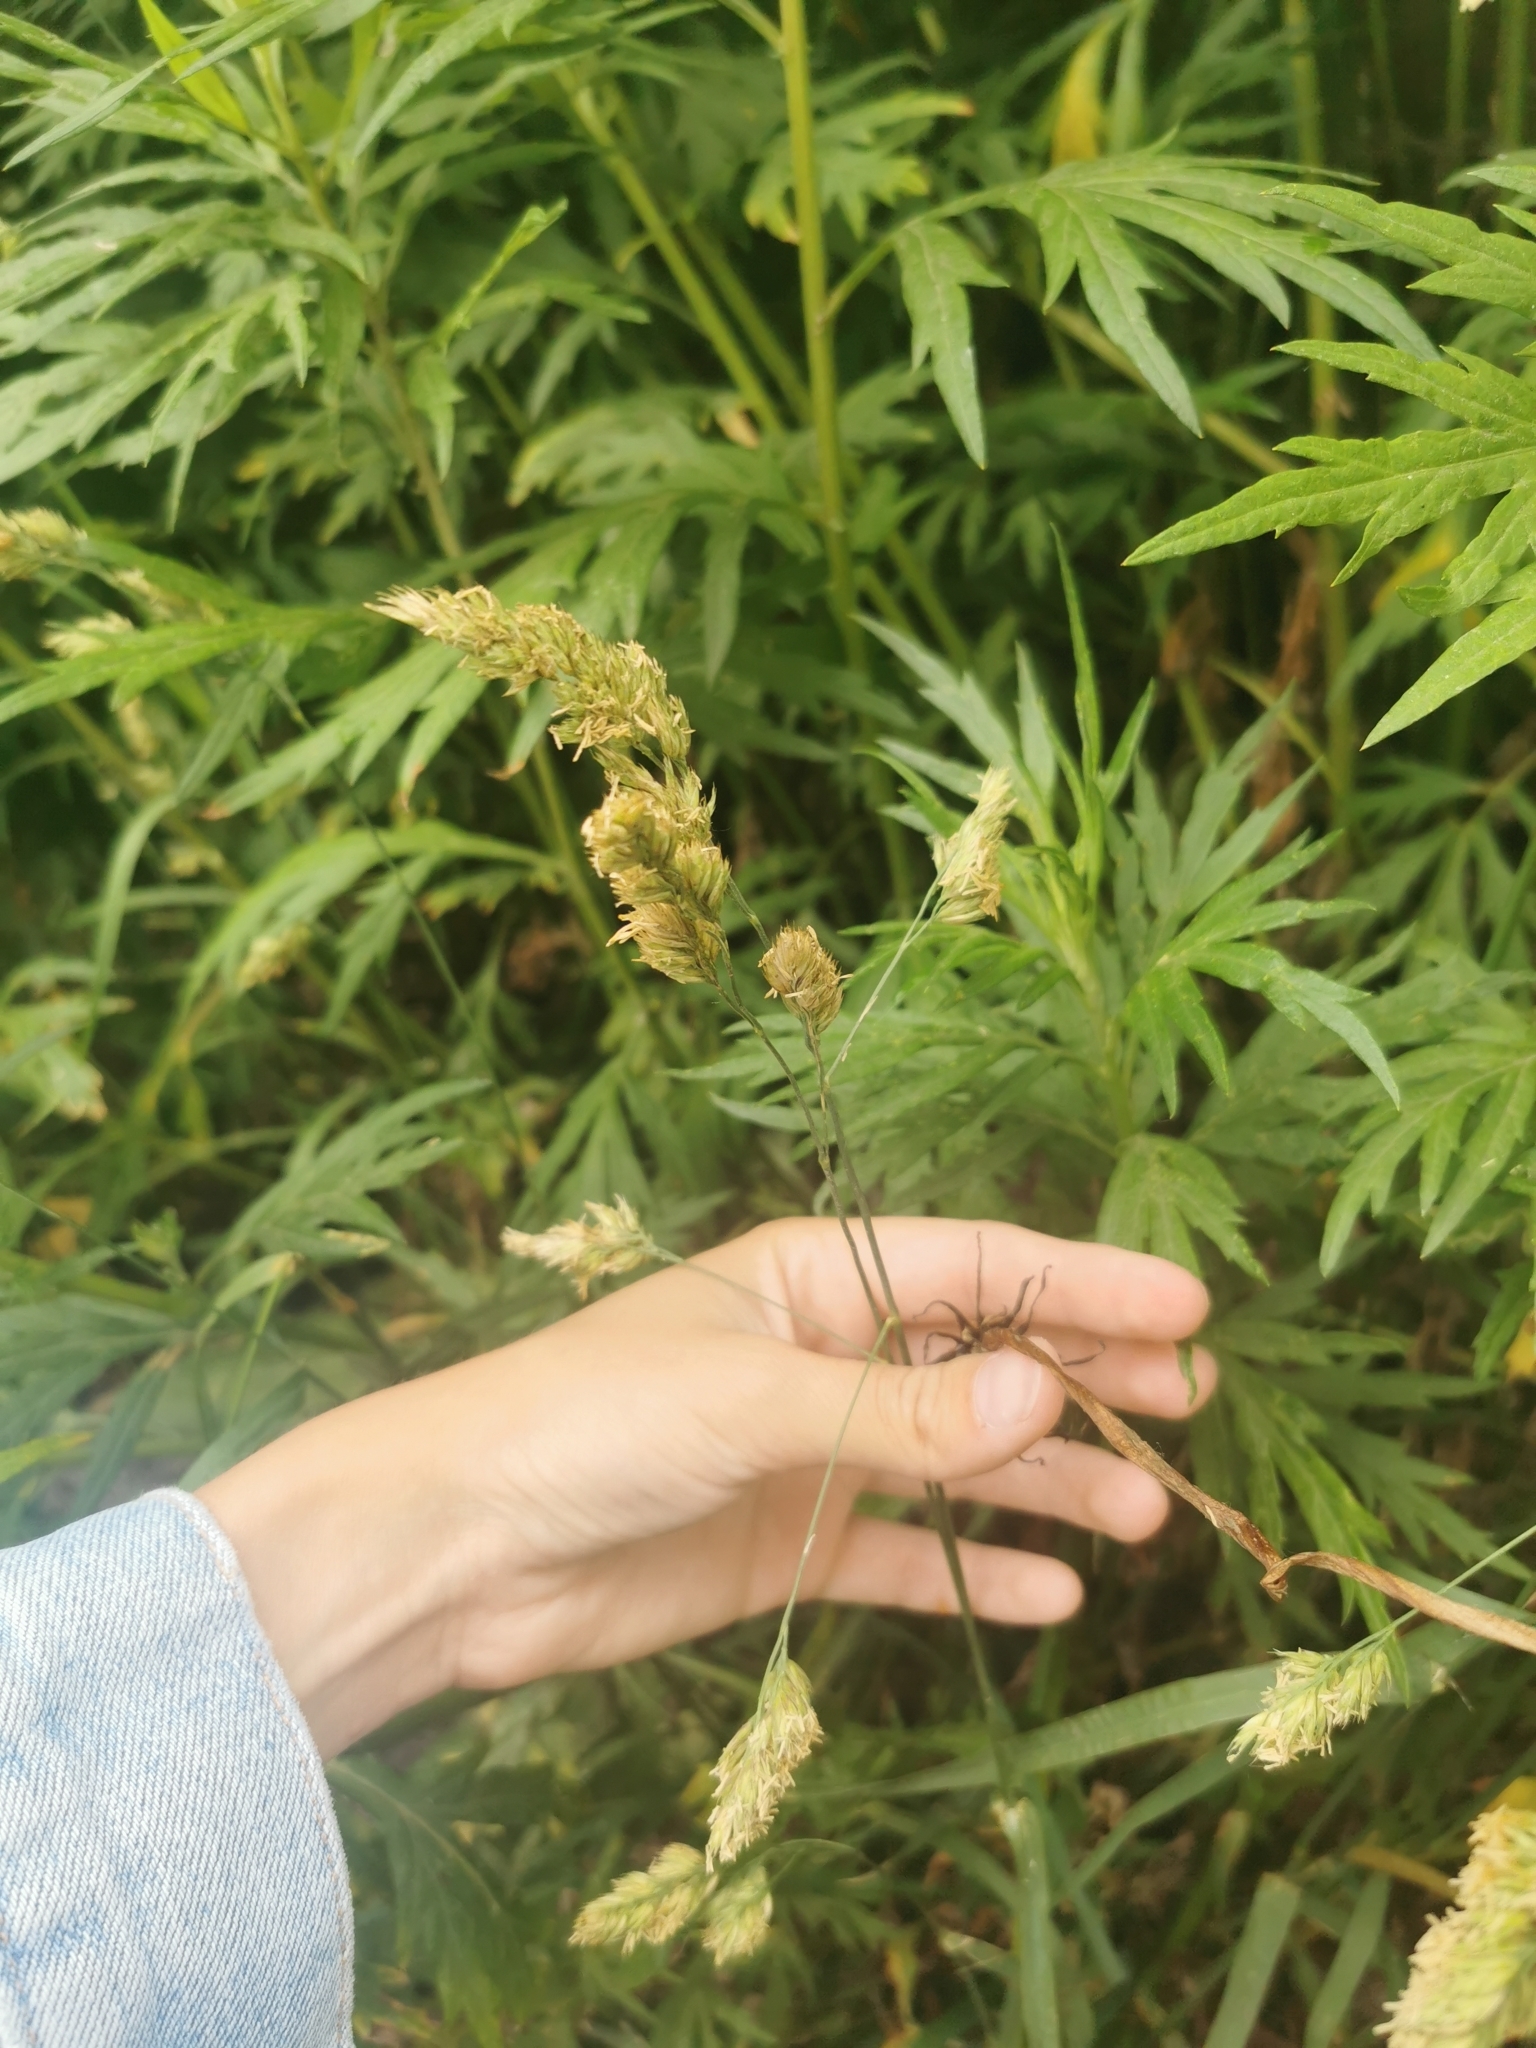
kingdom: Plantae
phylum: Tracheophyta
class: Liliopsida
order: Poales
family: Poaceae
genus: Dactylis
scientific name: Dactylis glomerata
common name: Orchardgrass
